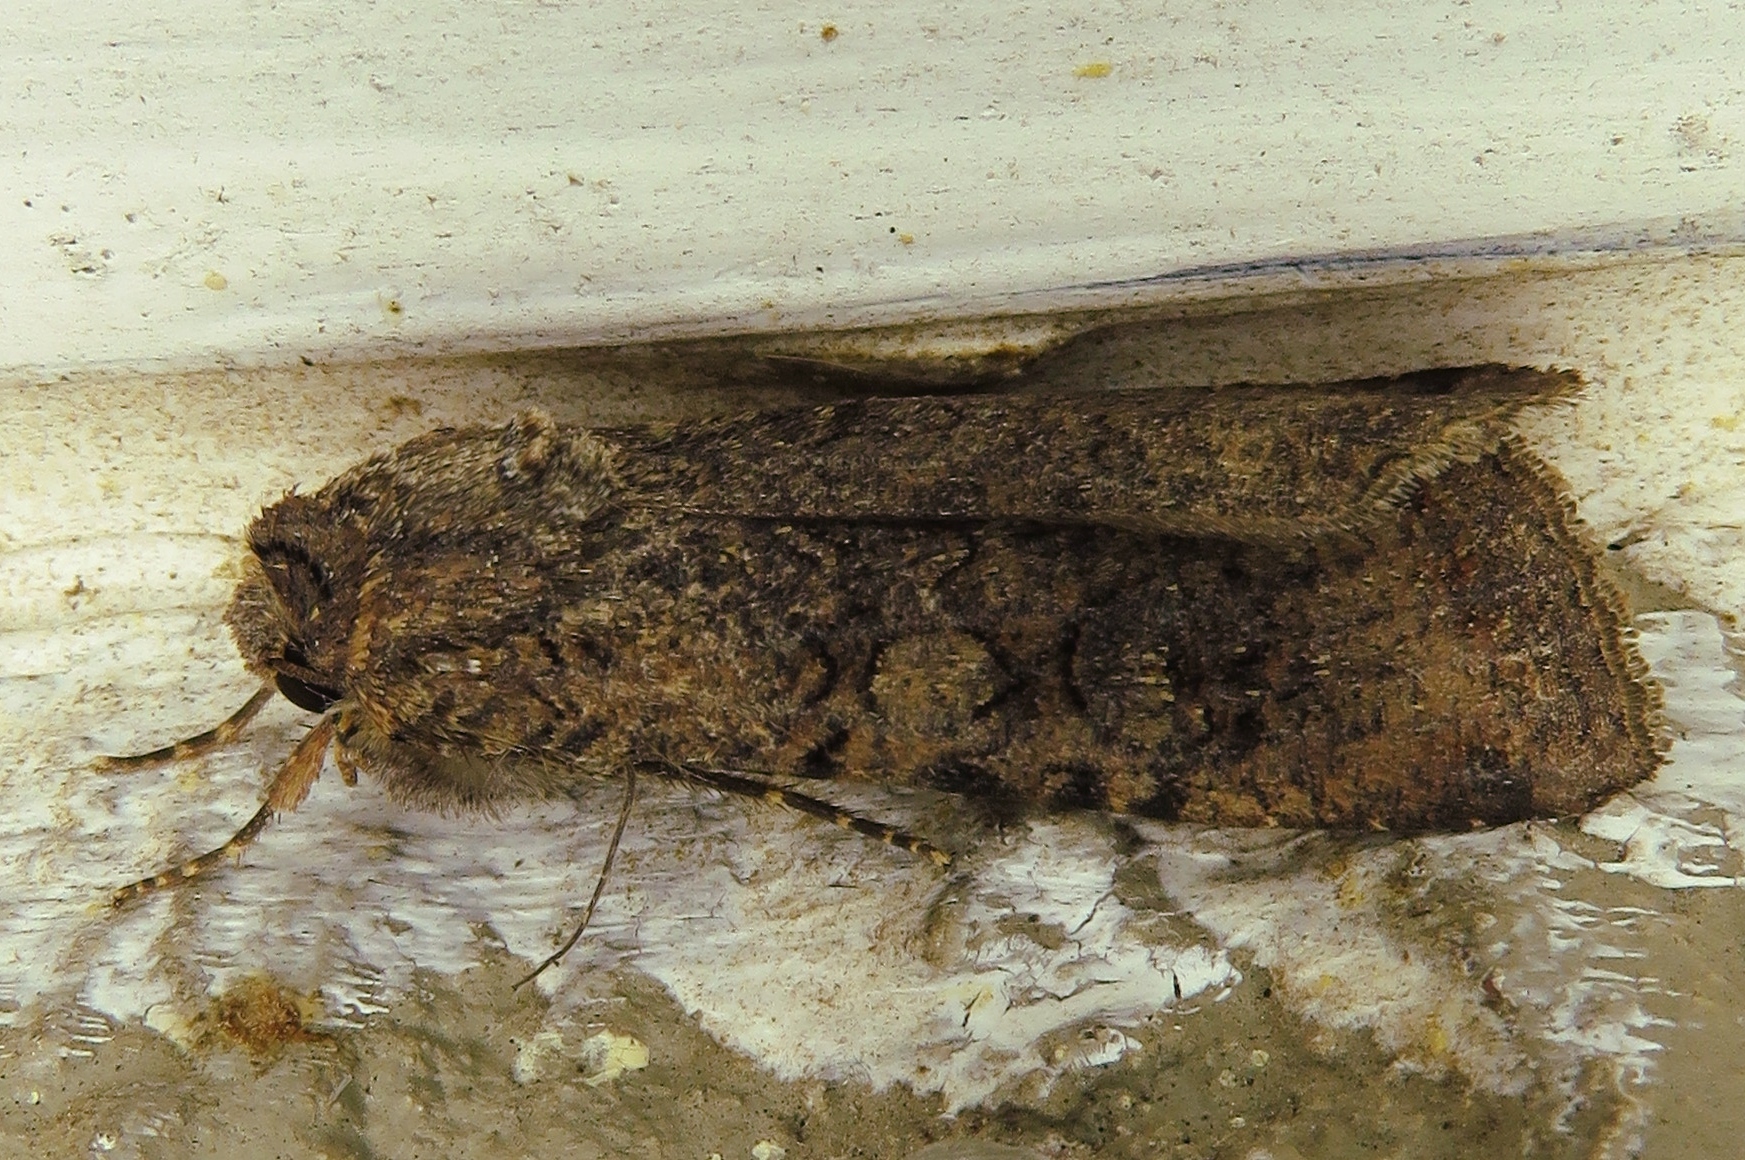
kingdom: Animalia
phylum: Arthropoda
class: Insecta
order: Lepidoptera
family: Noctuidae
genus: Peridroma
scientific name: Peridroma saucia
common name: Pearly underwing
